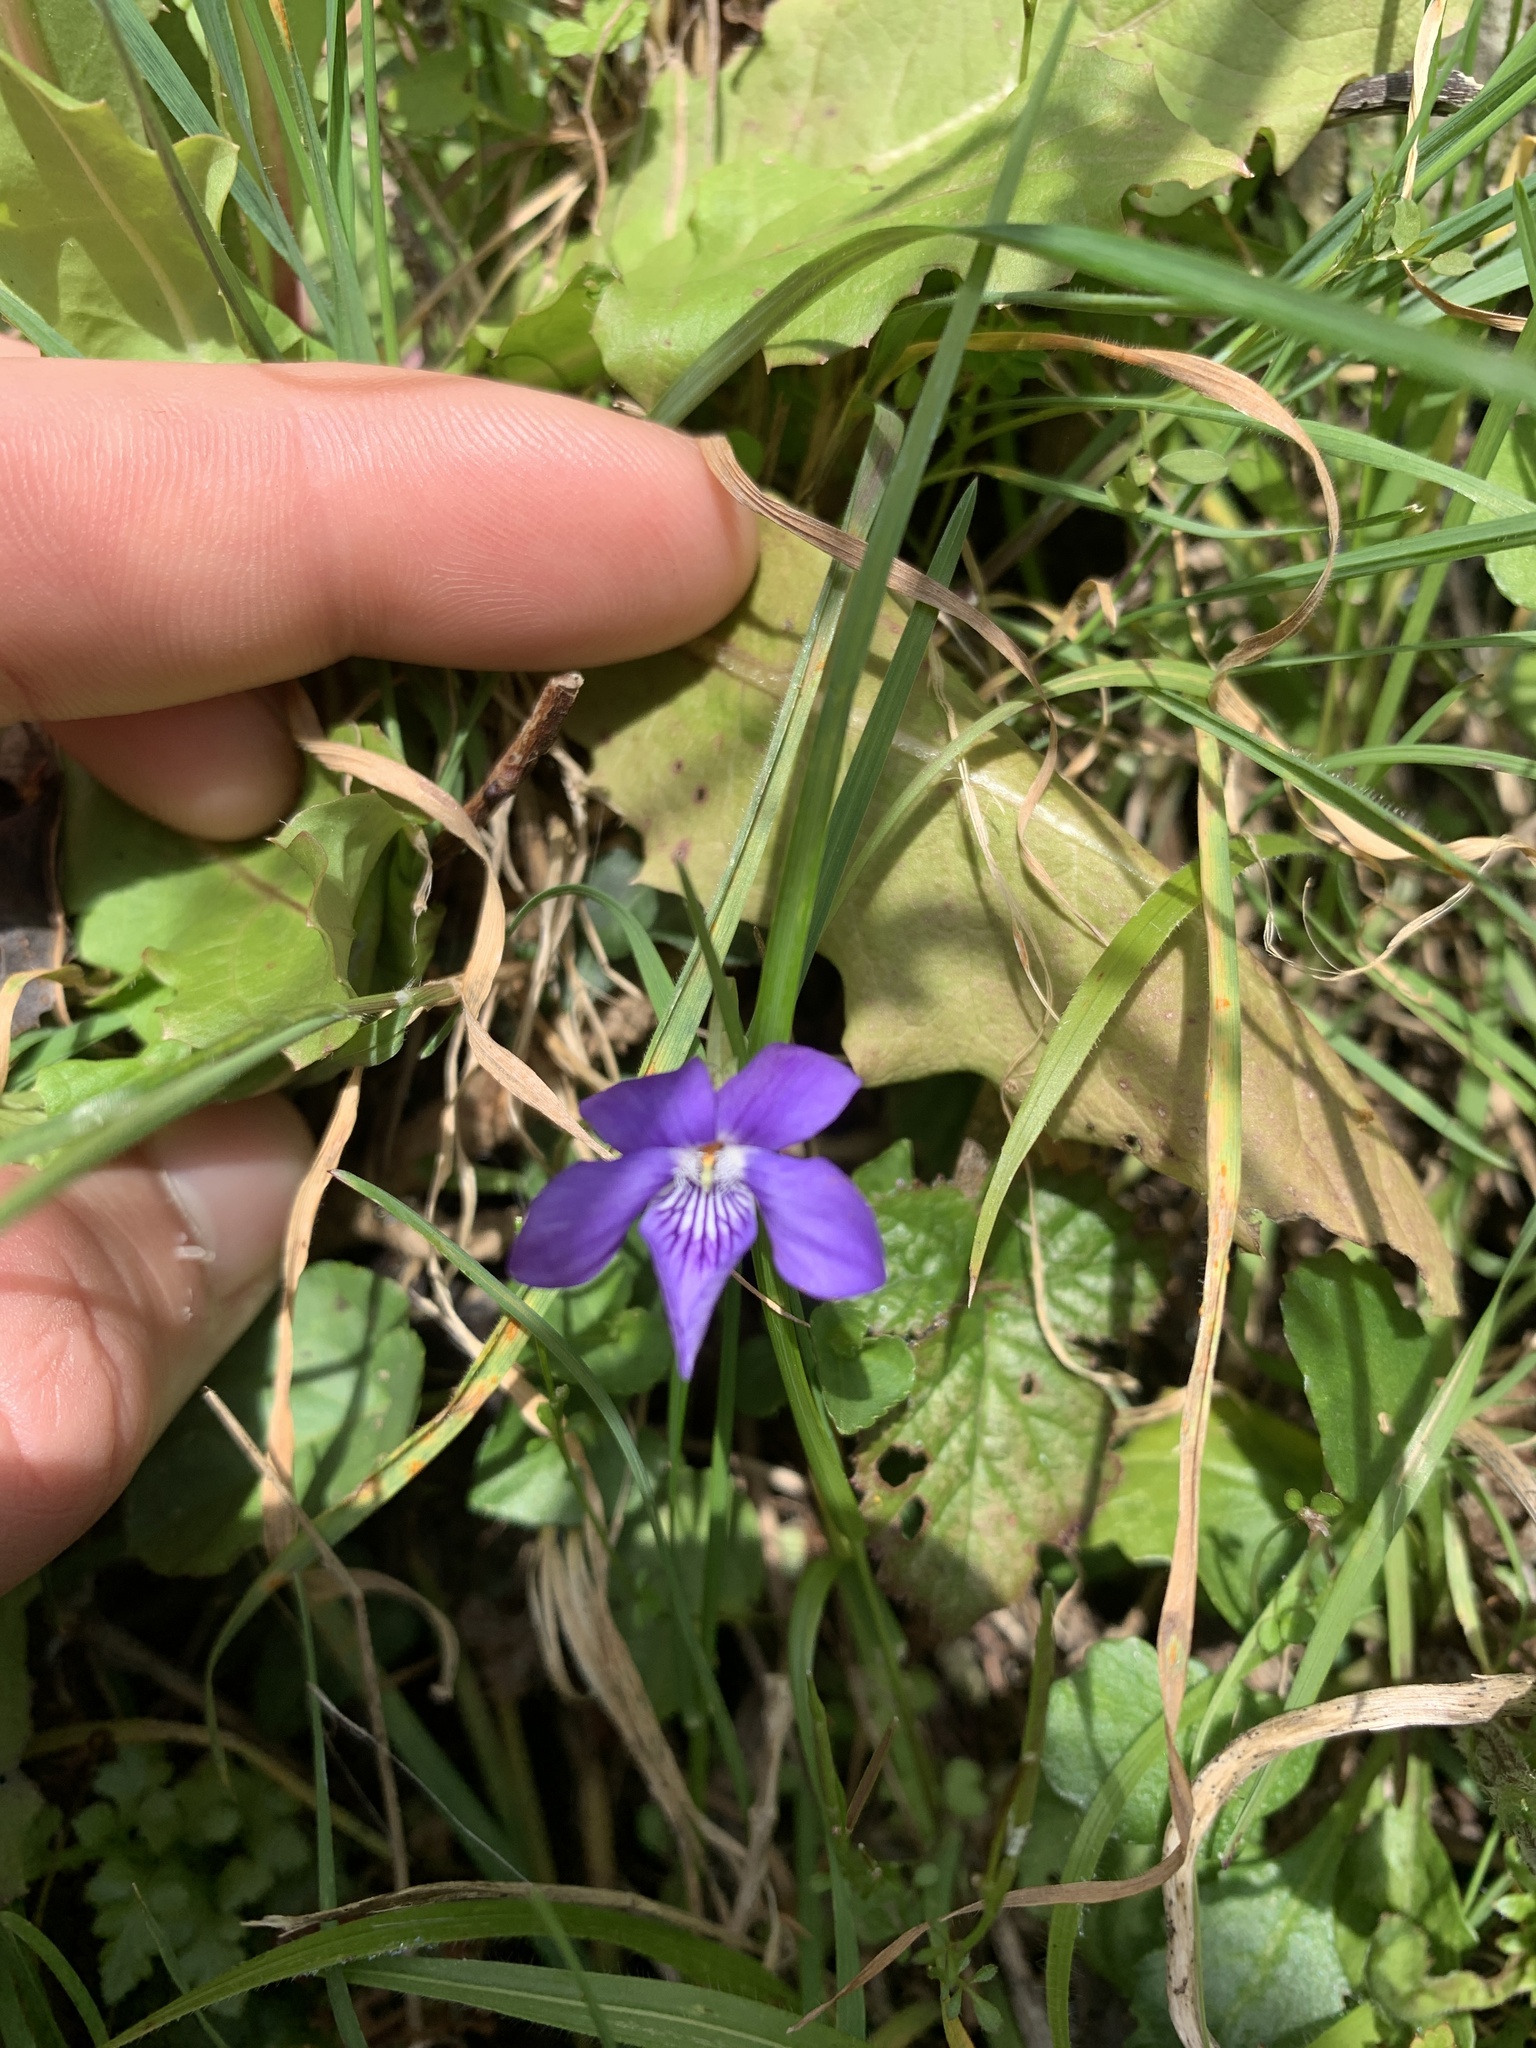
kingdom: Plantae
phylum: Tracheophyta
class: Magnoliopsida
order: Malpighiales
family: Violaceae
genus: Viola
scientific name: Viola riviniana
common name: Common dog-violet
